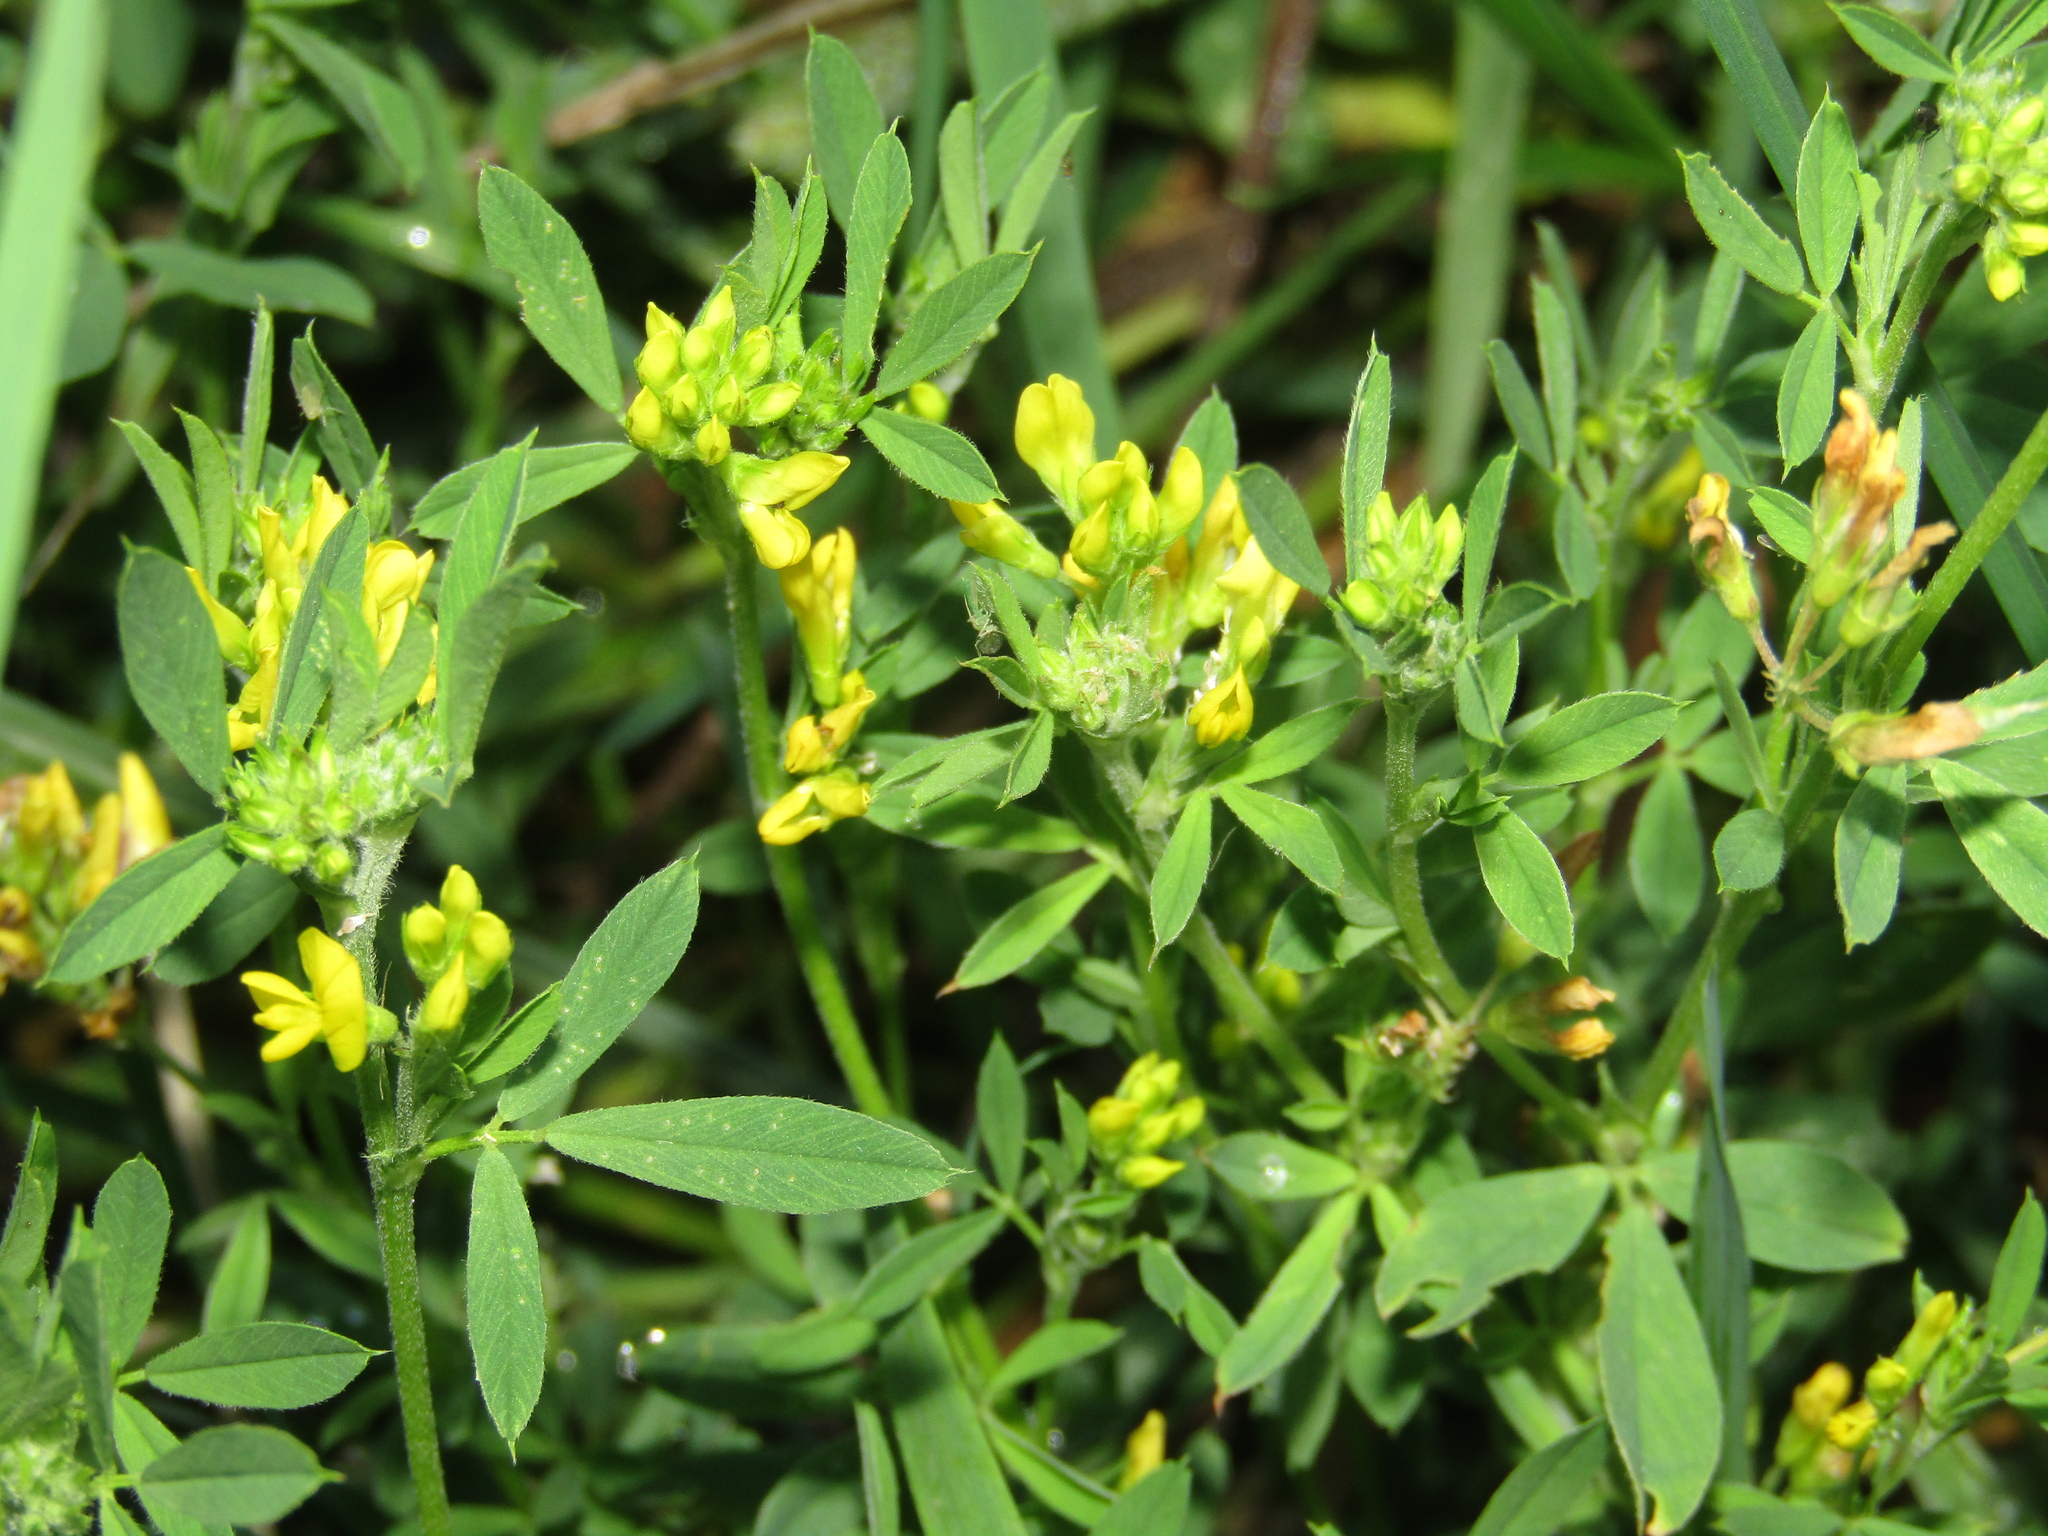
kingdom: Plantae
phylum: Tracheophyta
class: Magnoliopsida
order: Fabales
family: Fabaceae
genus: Medicago
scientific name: Medicago falcata
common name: Sickle medick
